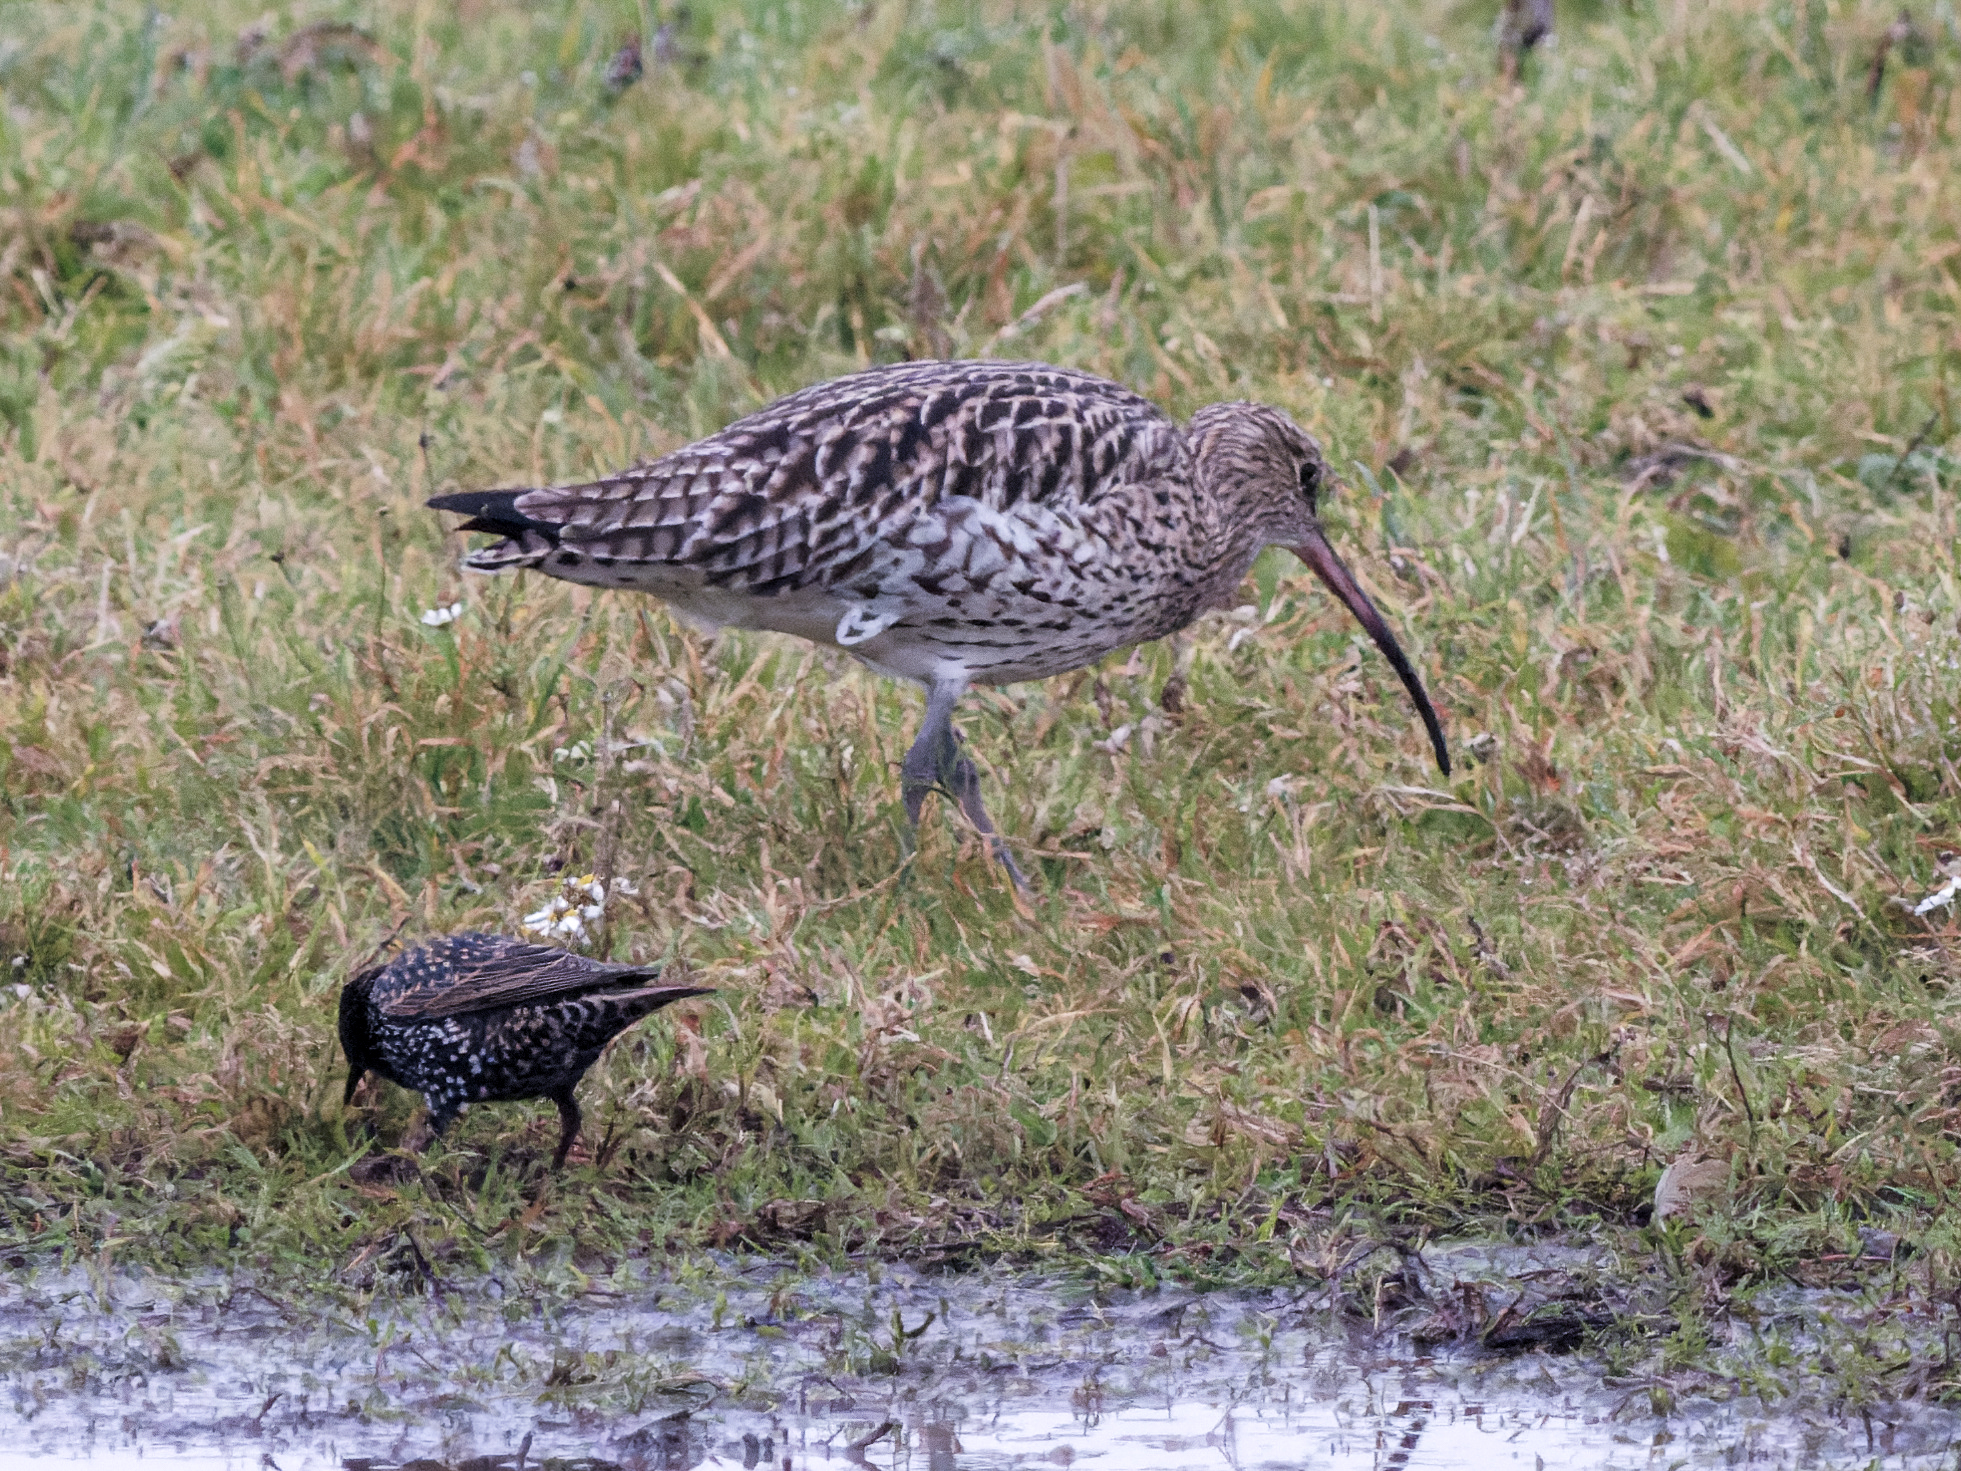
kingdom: Animalia
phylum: Chordata
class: Aves
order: Charadriiformes
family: Scolopacidae
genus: Numenius
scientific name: Numenius arquata
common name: Eurasian curlew
